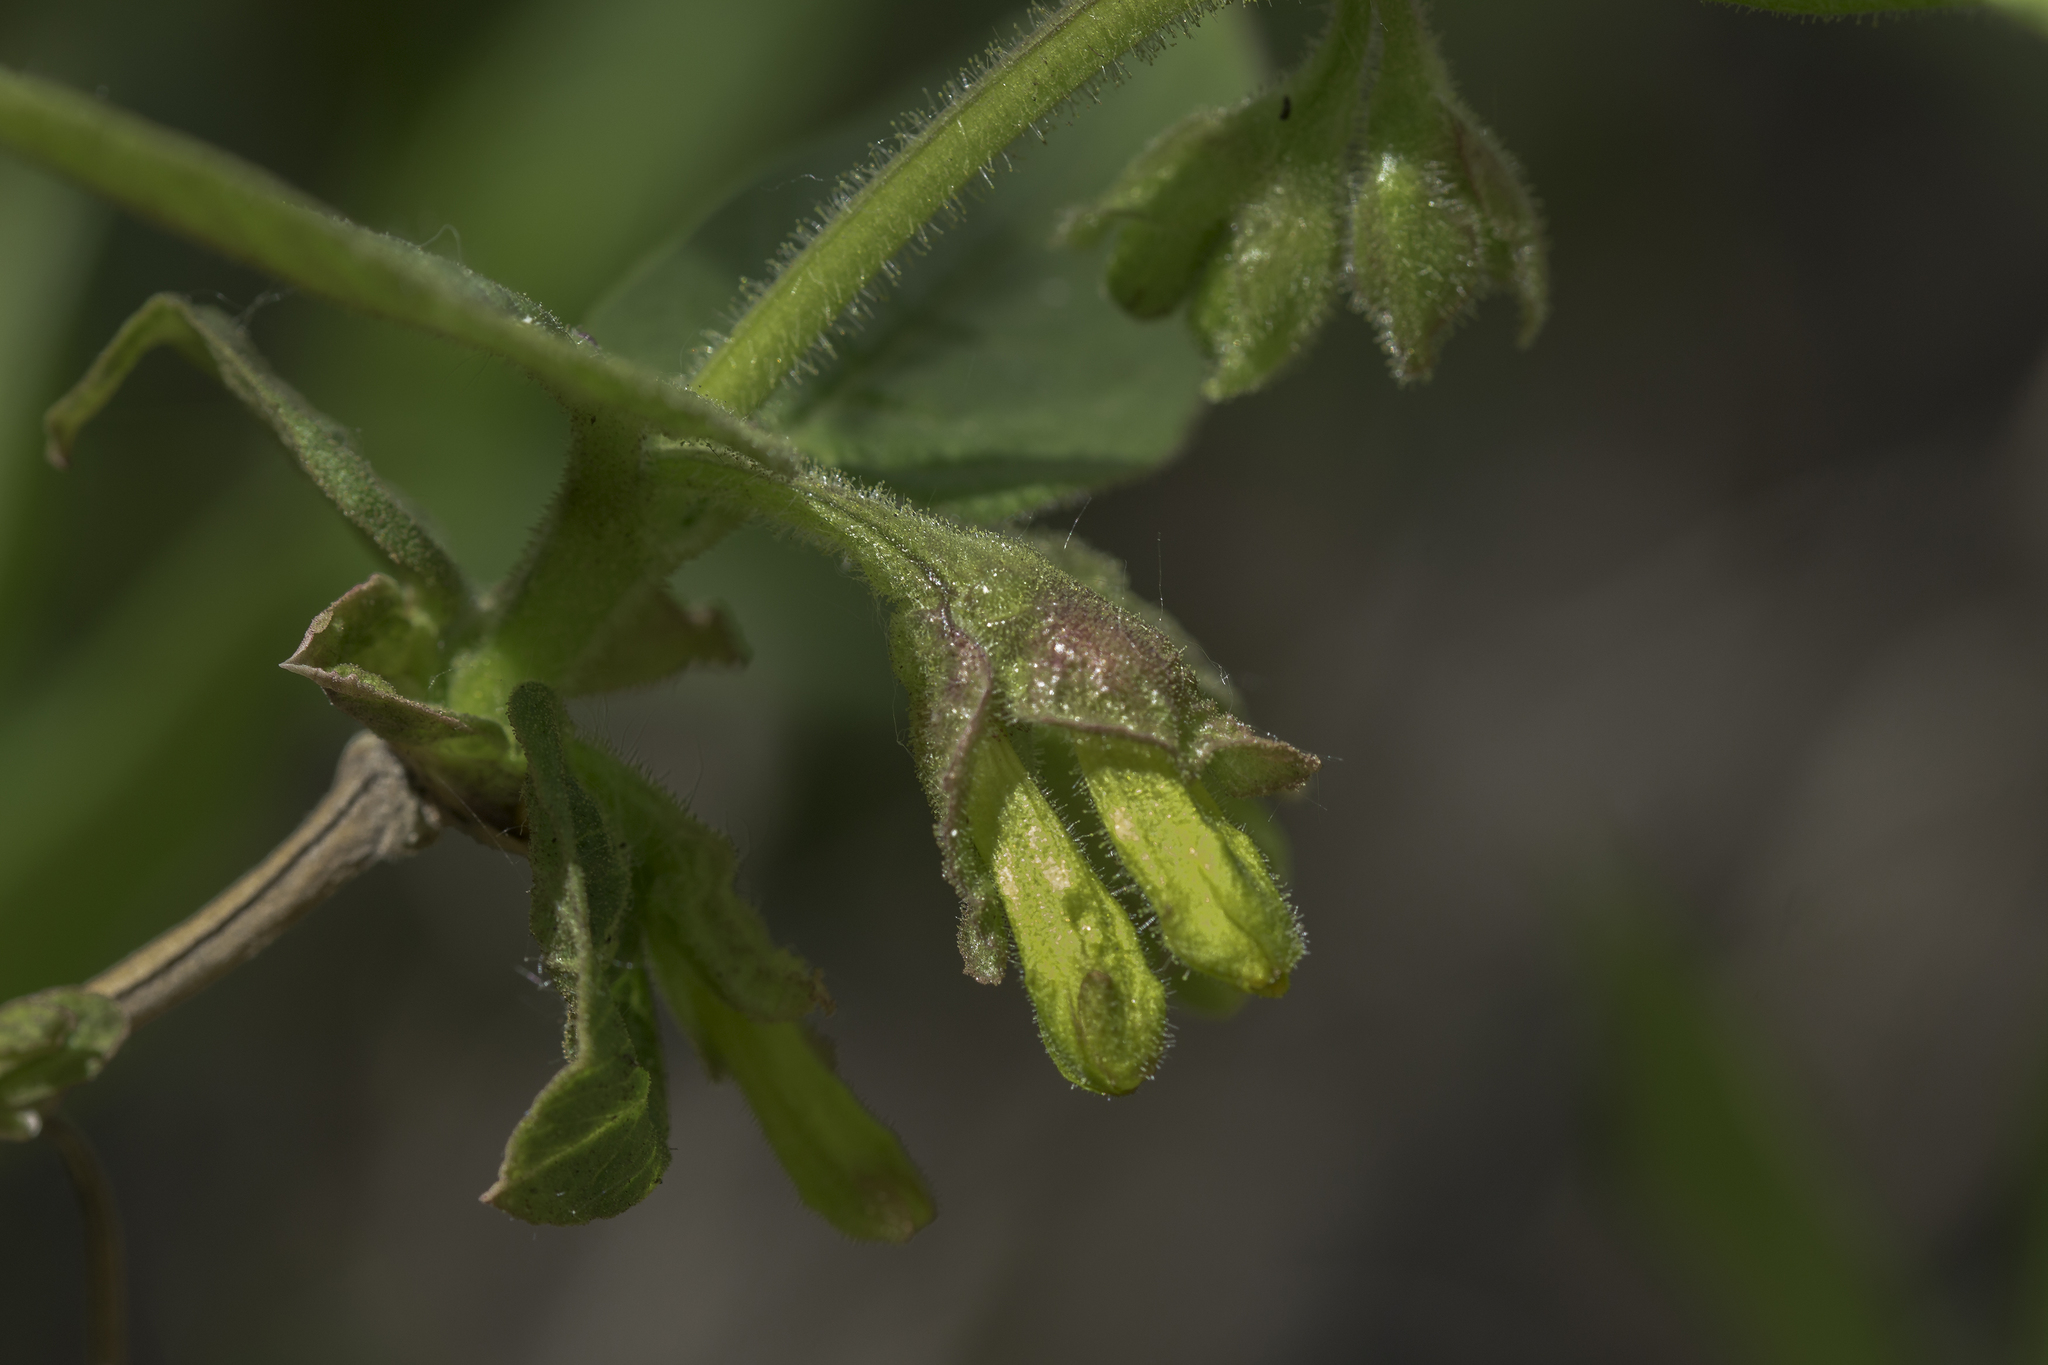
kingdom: Plantae
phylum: Tracheophyta
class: Magnoliopsida
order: Dipsacales
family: Caprifoliaceae
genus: Lonicera
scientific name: Lonicera involucrata
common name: Californian honeysuckle
